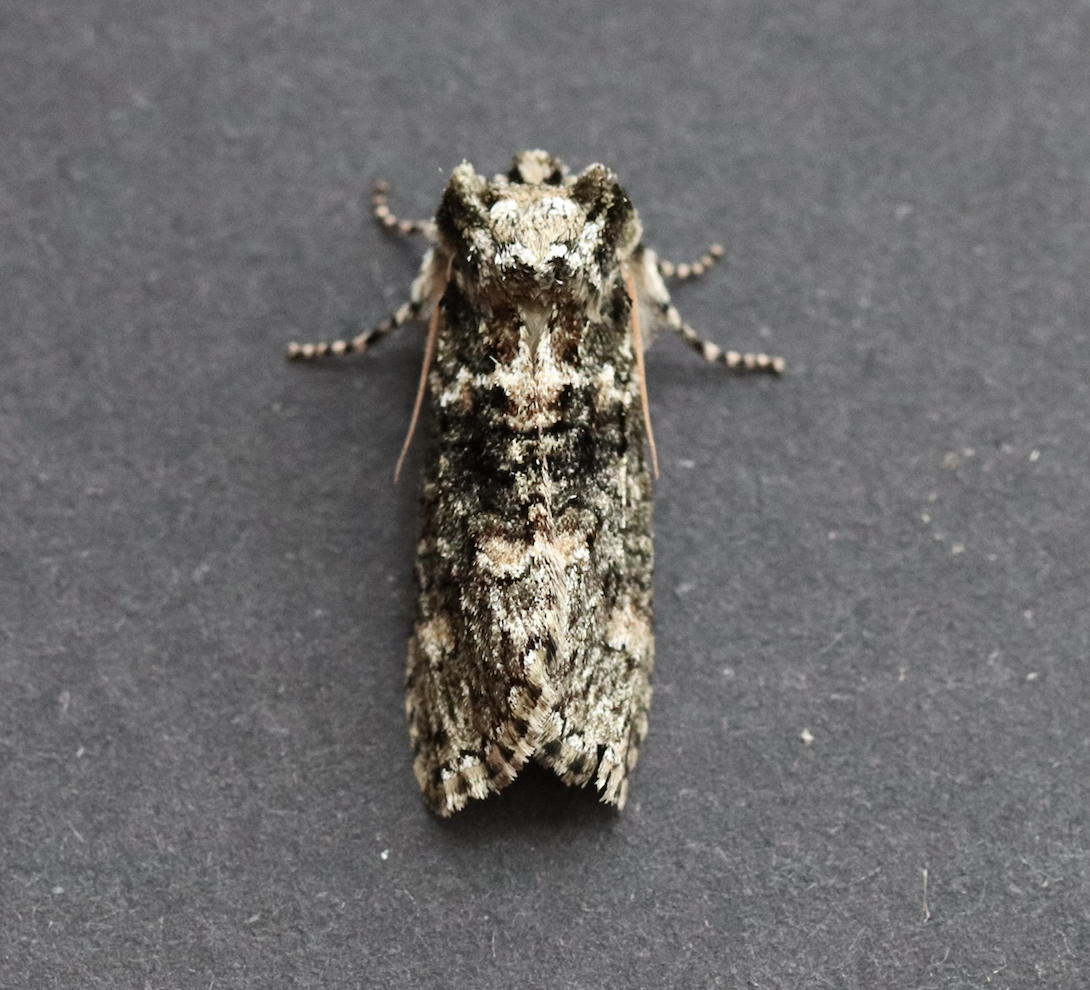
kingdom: Animalia
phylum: Arthropoda
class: Insecta
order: Lepidoptera
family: Drepanidae
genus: Polyploca
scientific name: Polyploca ridens
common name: Frosted green
